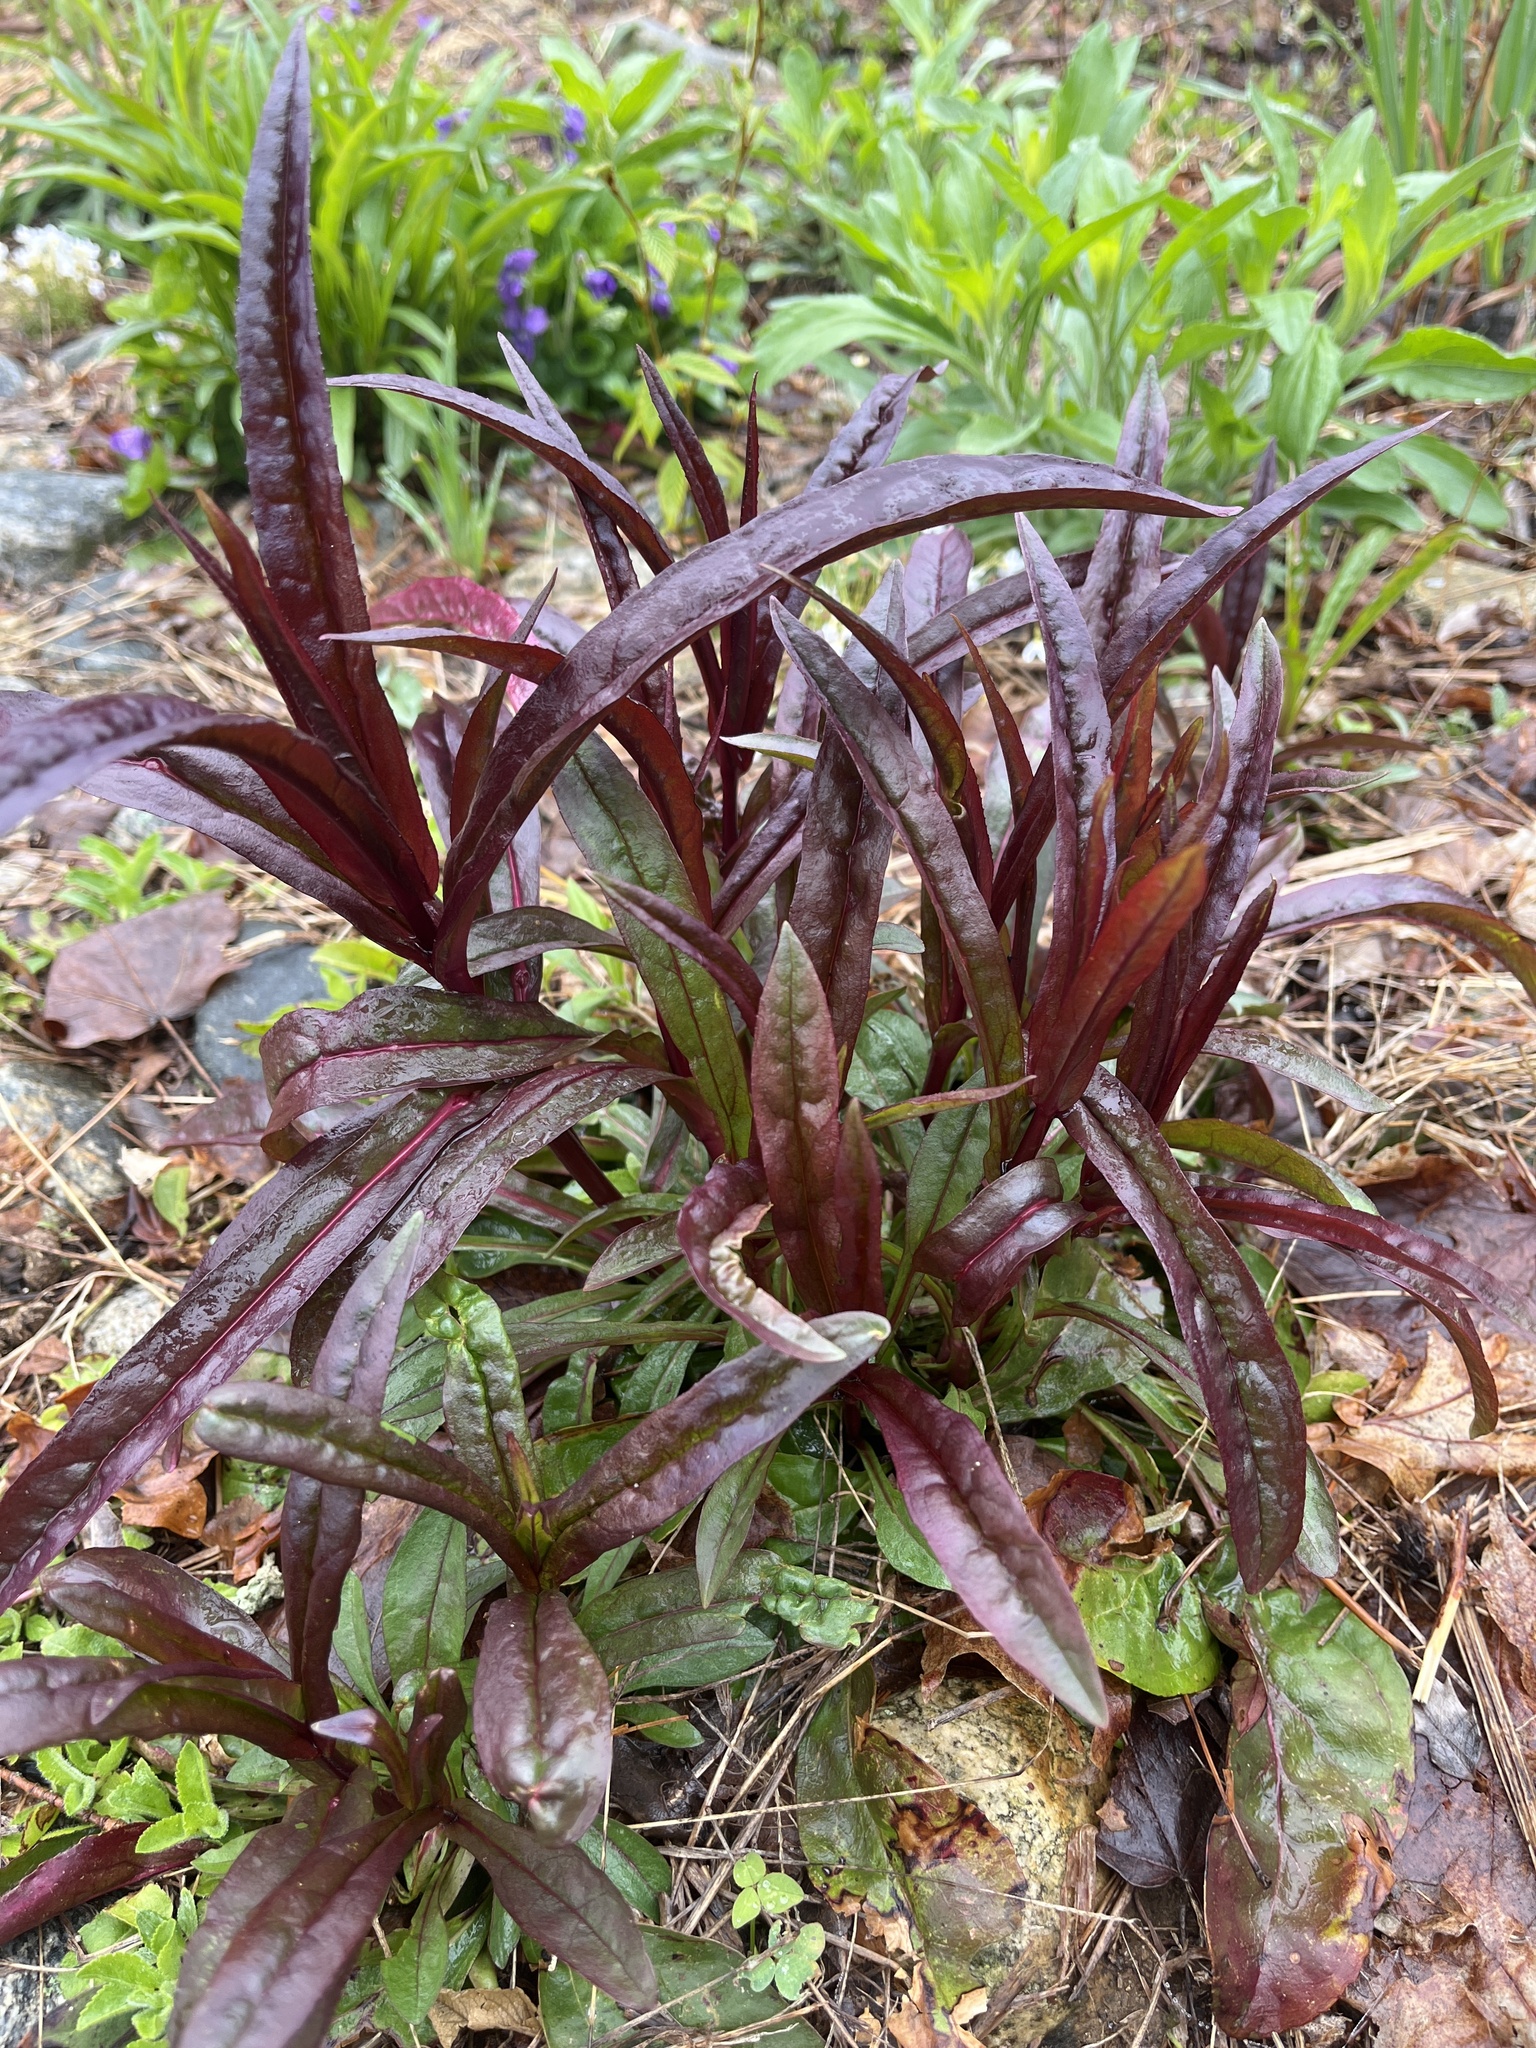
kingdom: Plantae
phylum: Tracheophyta
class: Magnoliopsida
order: Lamiales
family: Plantaginaceae
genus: Penstemon
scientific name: Penstemon digitalis
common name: Foxglove beardtongue
